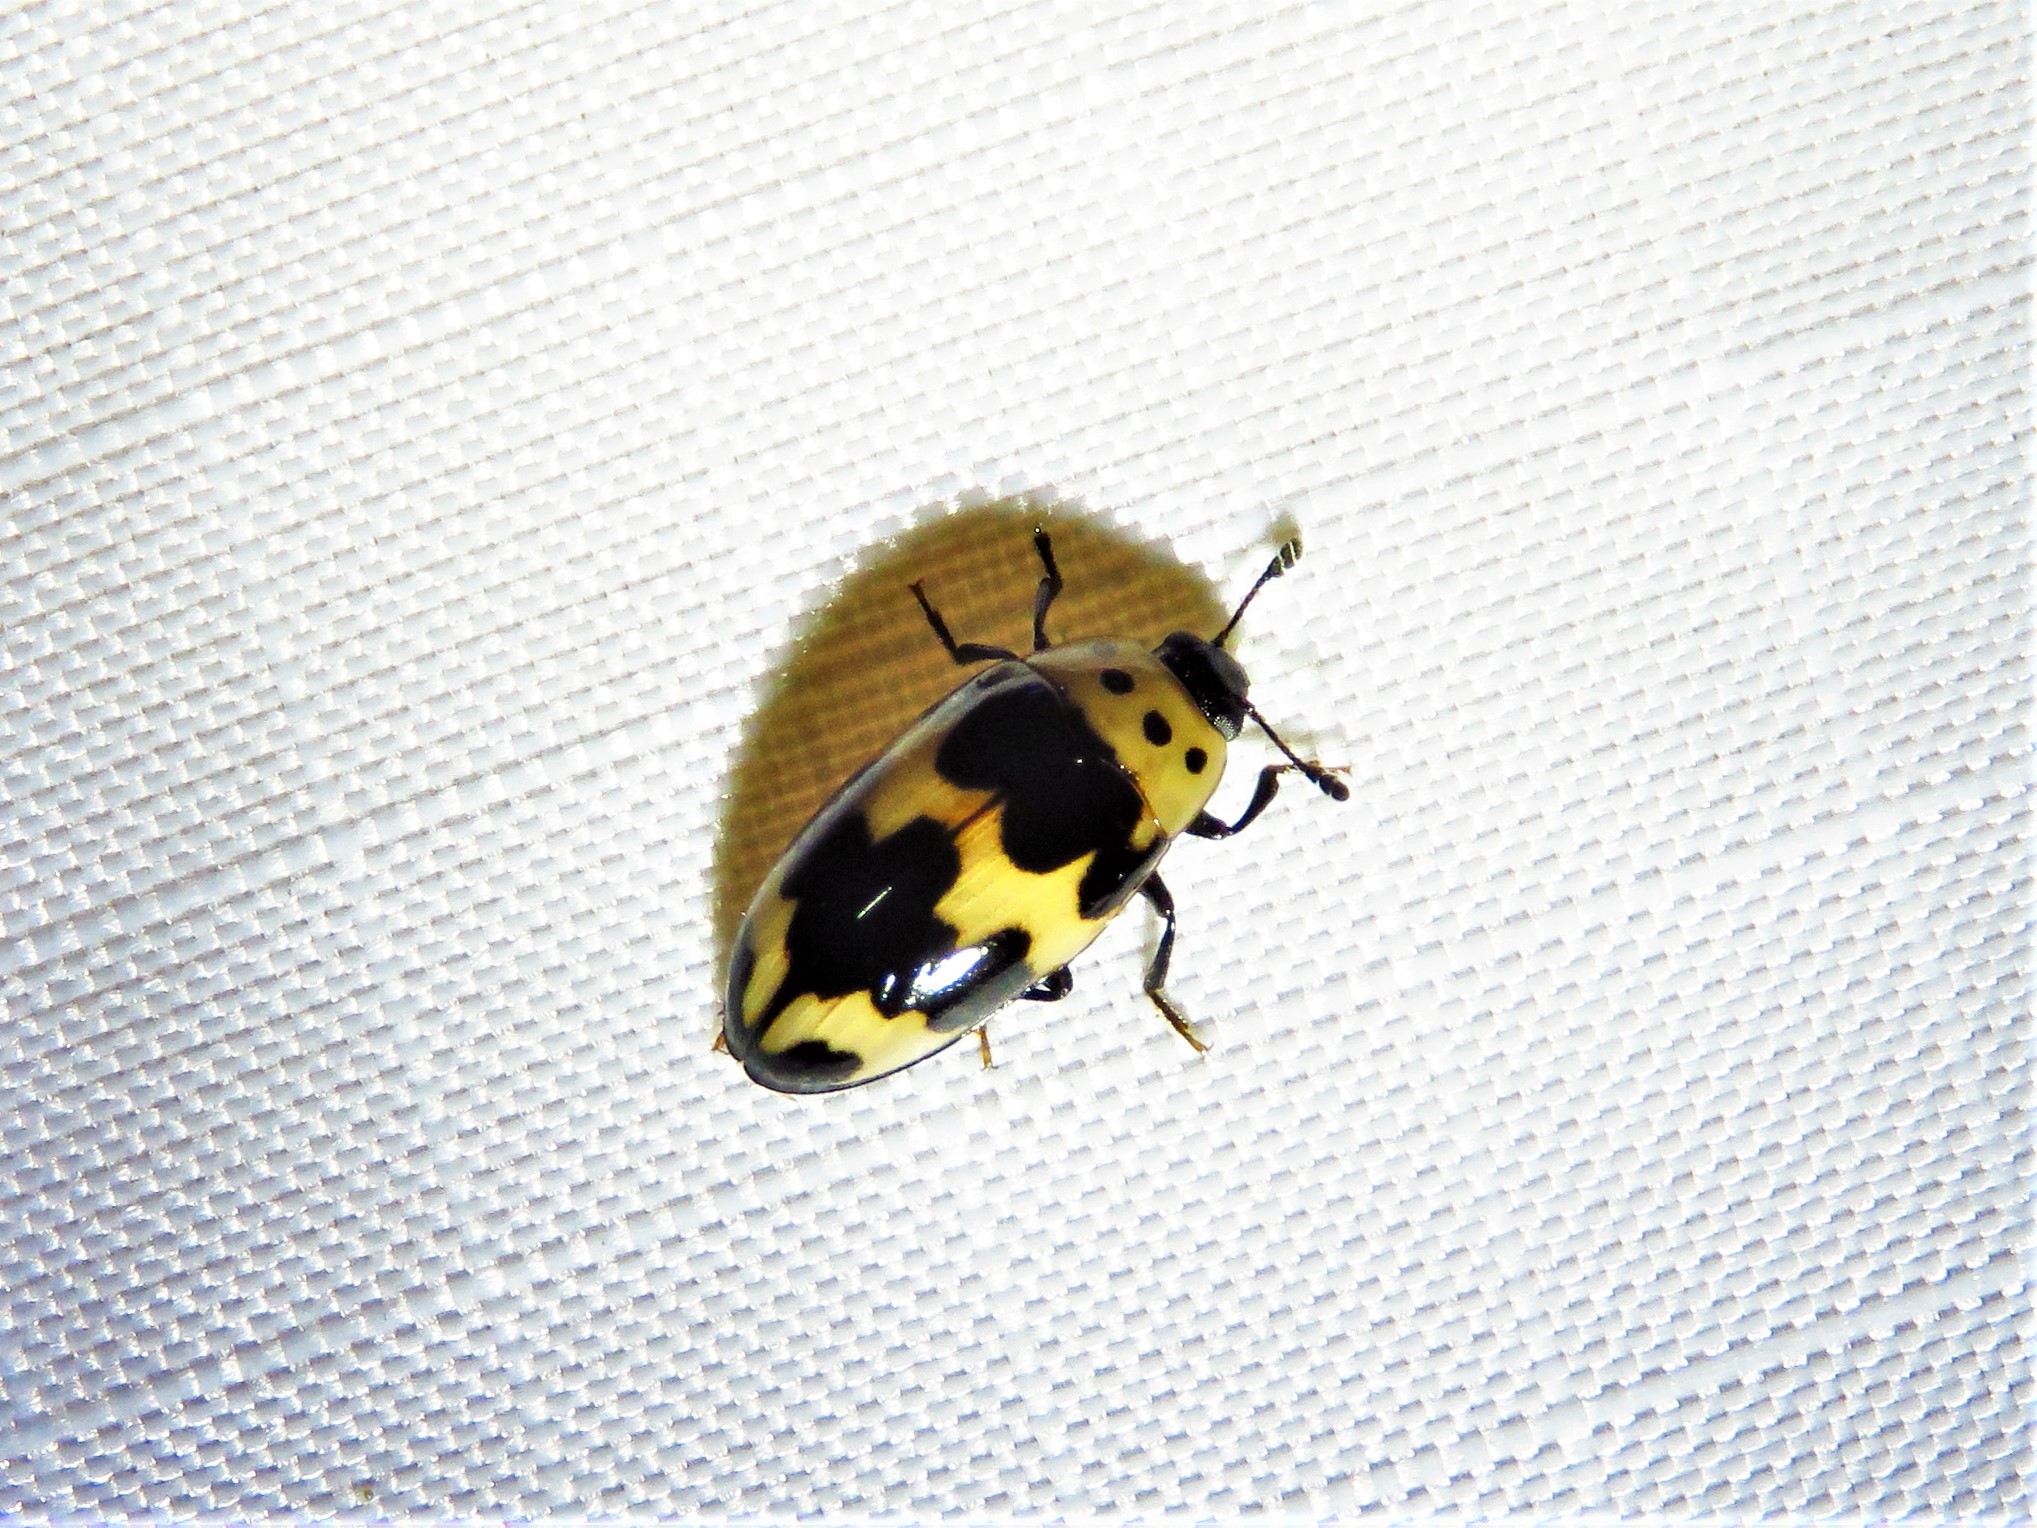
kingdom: Animalia
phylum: Arthropoda
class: Insecta
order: Coleoptera
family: Erotylidae
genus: Ischyrus
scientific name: Ischyrus quadripunctatus
